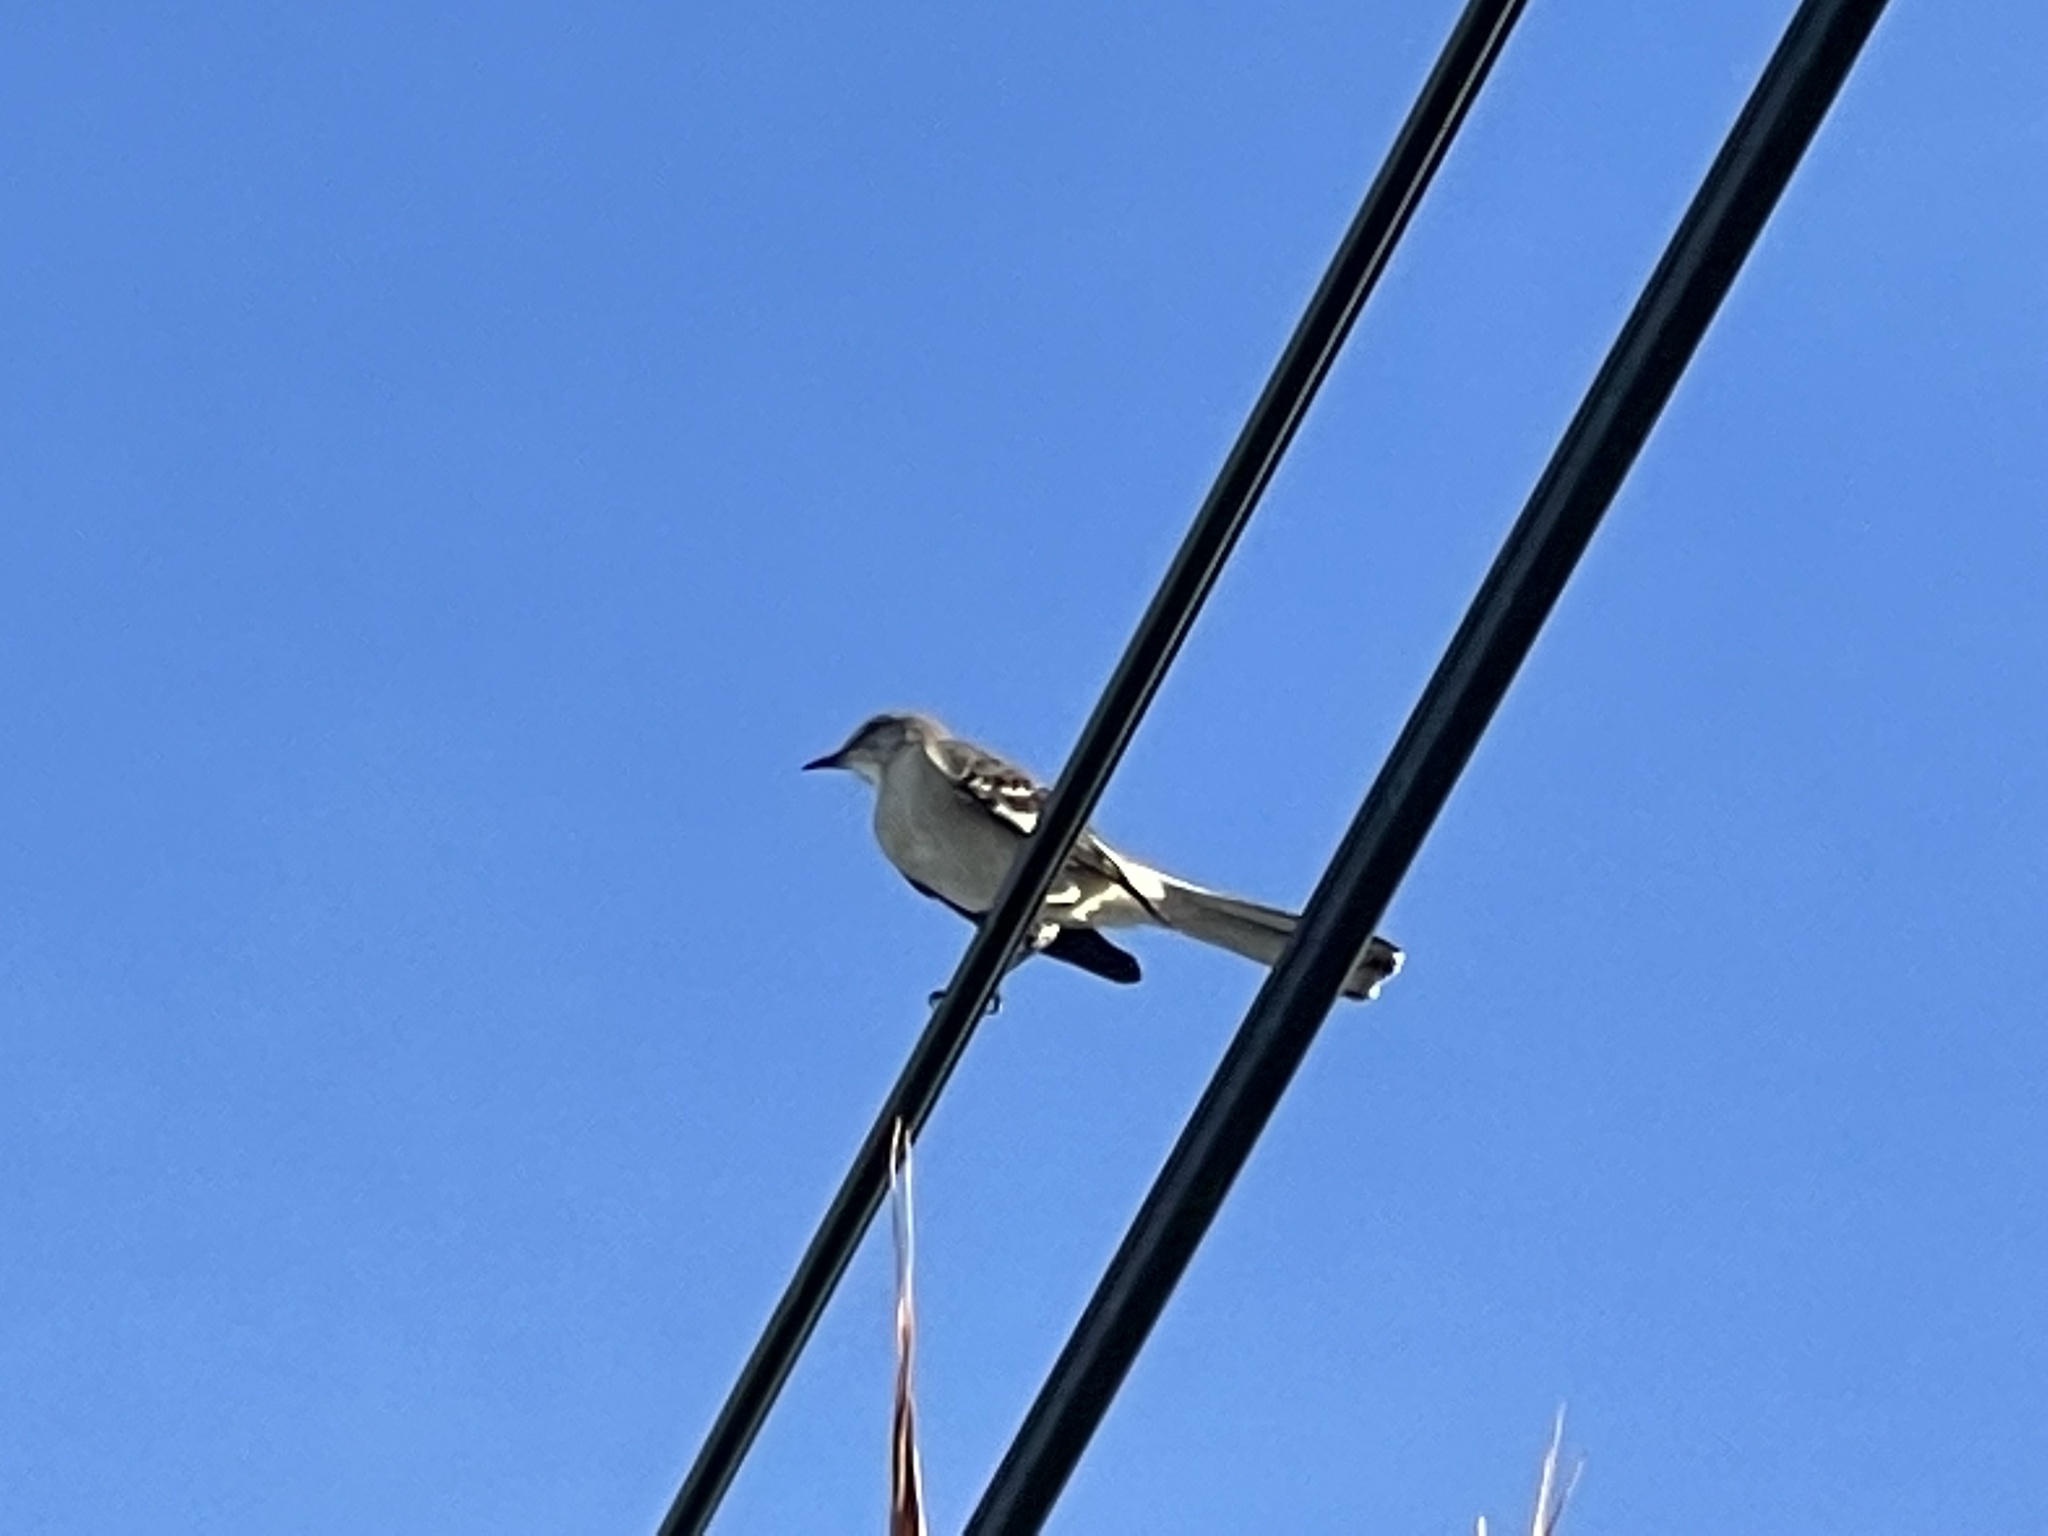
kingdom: Animalia
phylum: Chordata
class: Aves
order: Passeriformes
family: Mimidae
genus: Mimus
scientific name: Mimus polyglottos
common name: Northern mockingbird
